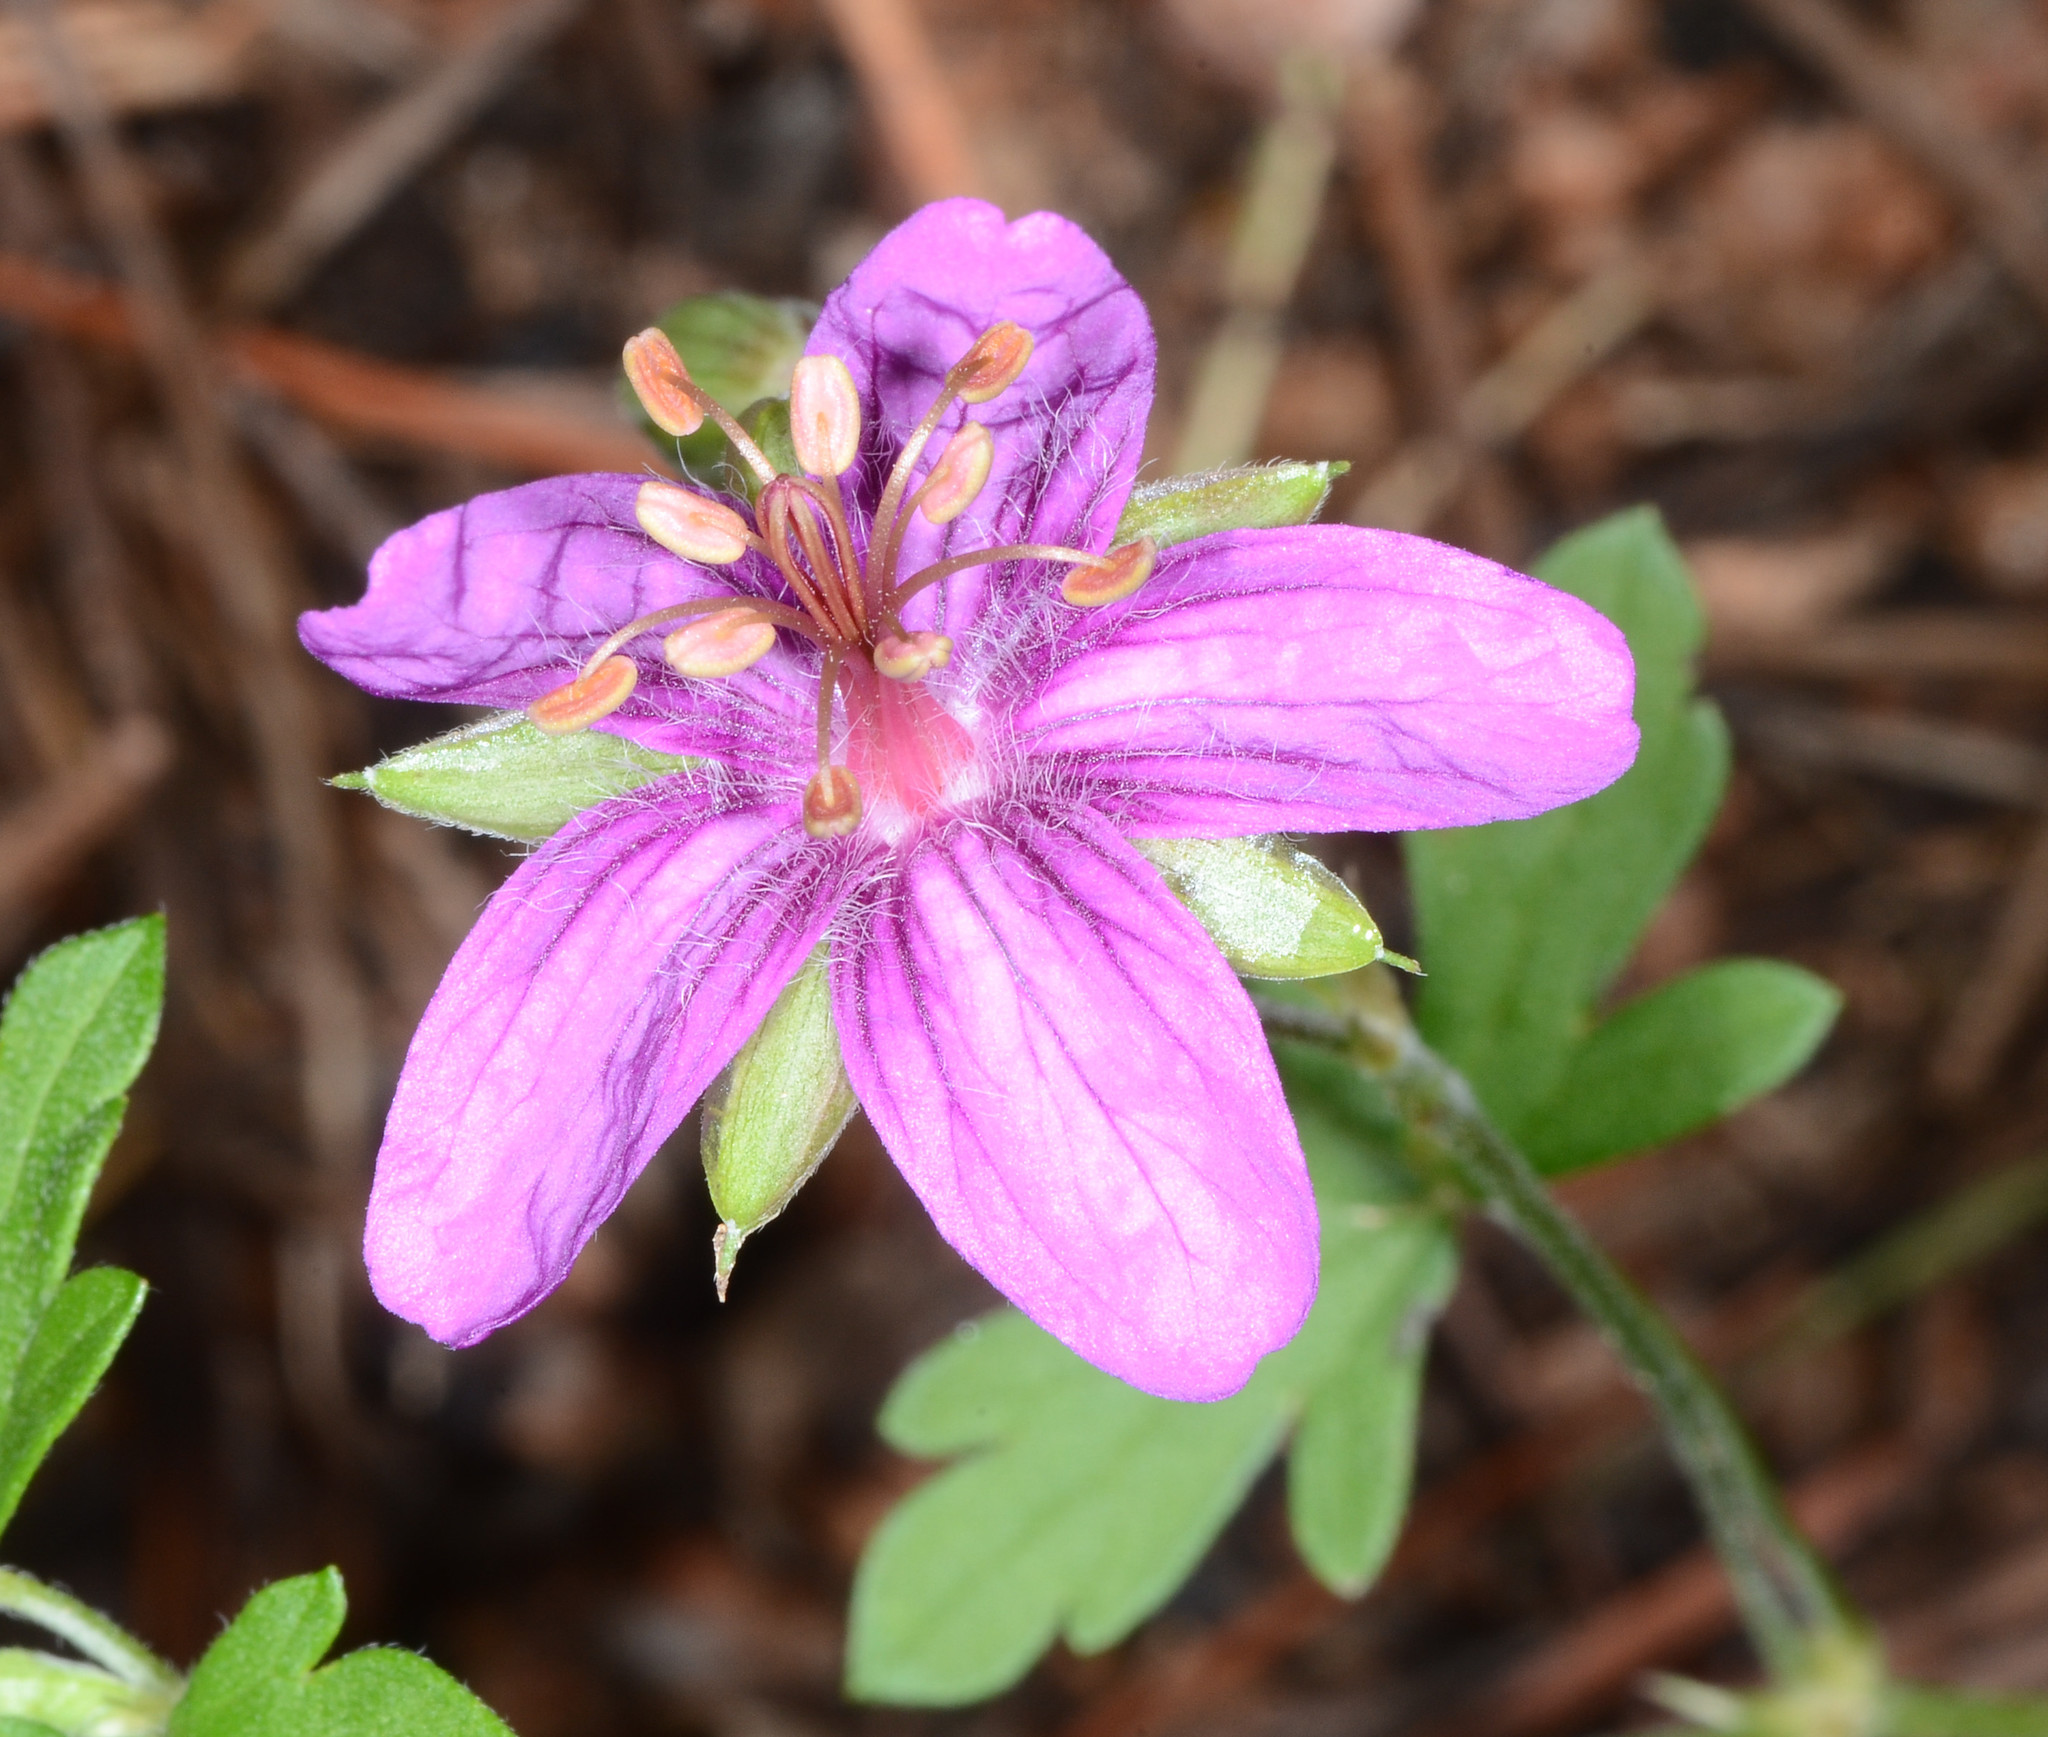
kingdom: Plantae
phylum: Tracheophyta
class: Magnoliopsida
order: Geraniales
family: Geraniaceae
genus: Geranium
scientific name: Geranium caespitosum
